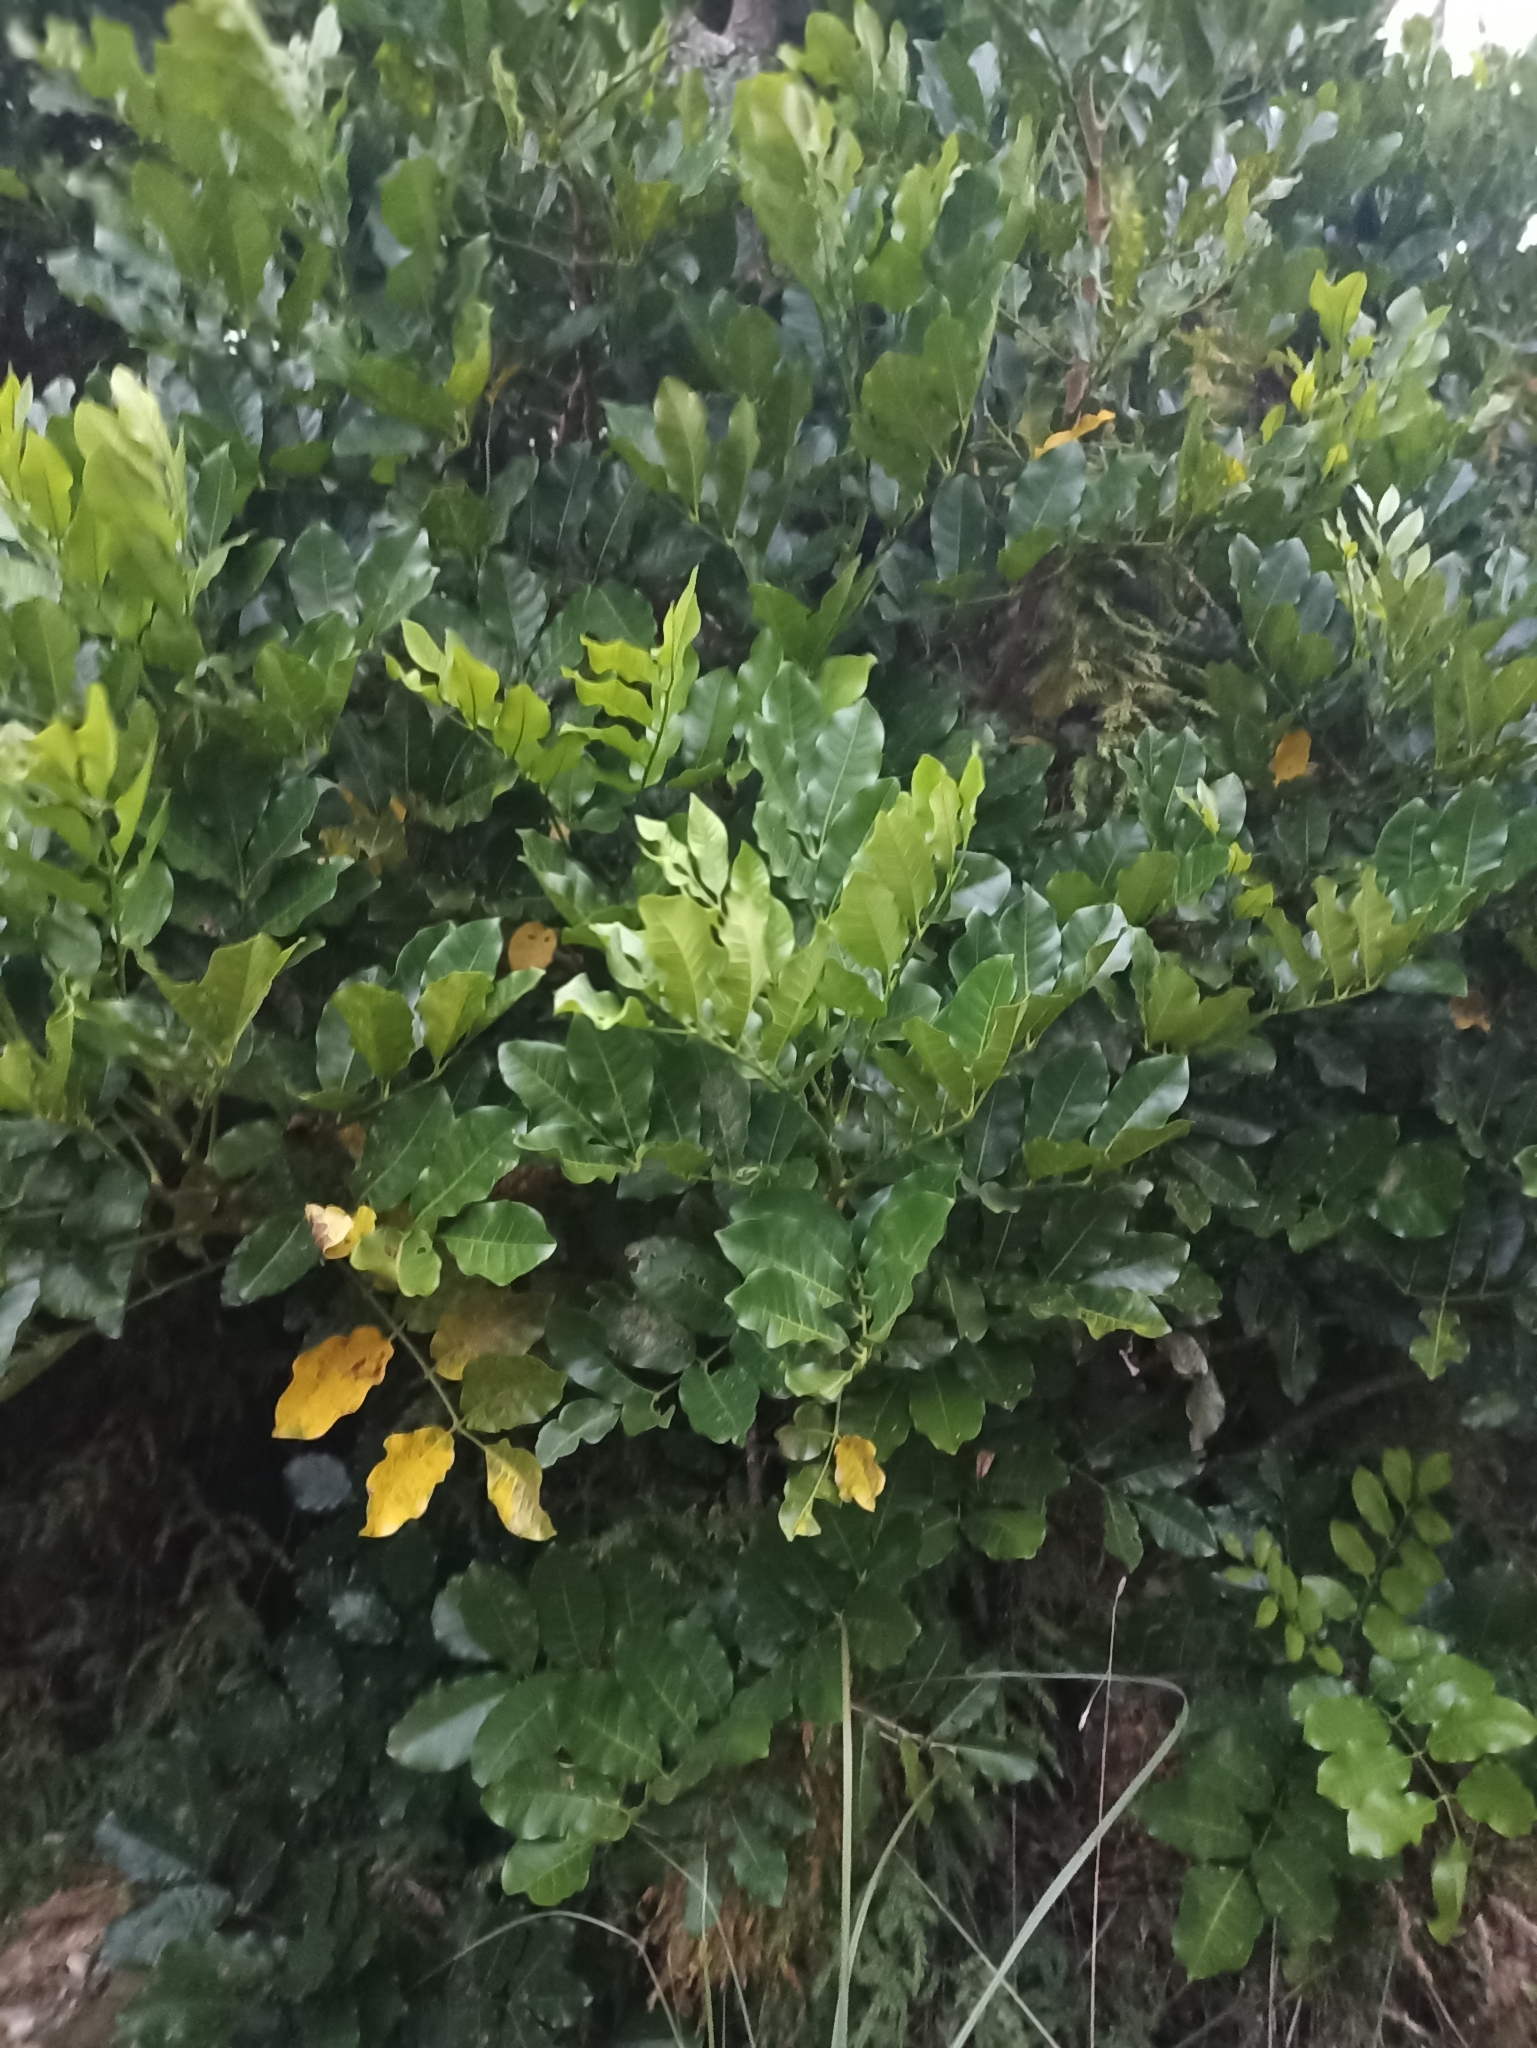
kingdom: Plantae
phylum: Tracheophyta
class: Magnoliopsida
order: Sapindales
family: Meliaceae
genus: Didymocheton
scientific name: Didymocheton spectabilis
